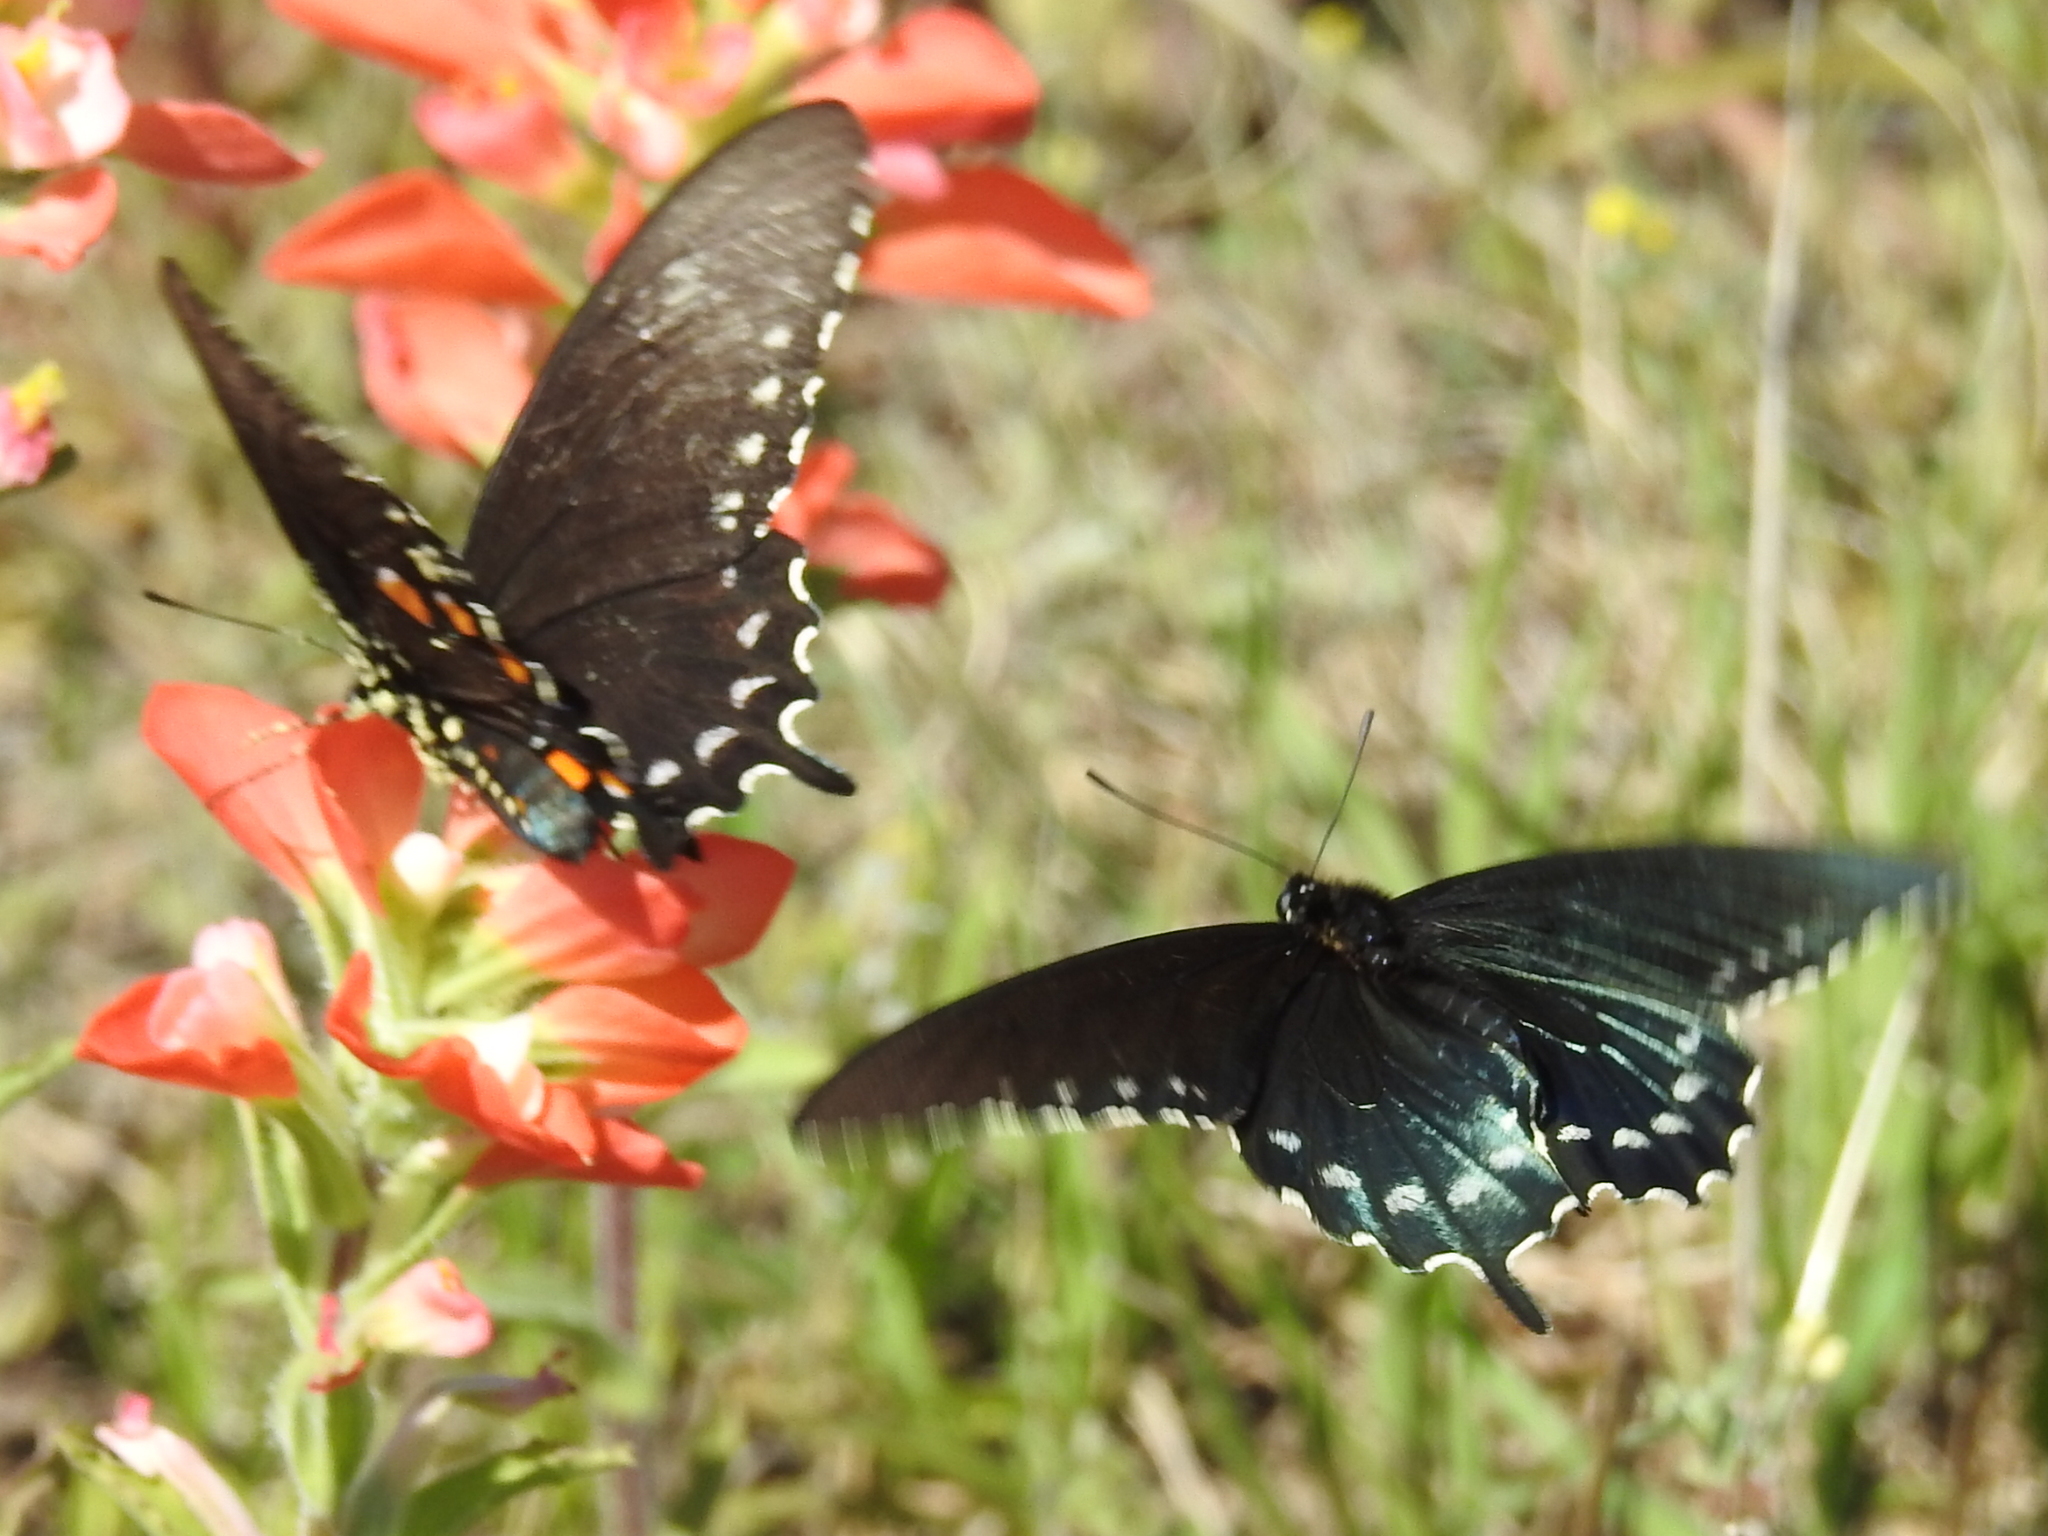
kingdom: Animalia
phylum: Arthropoda
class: Insecta
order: Lepidoptera
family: Papilionidae
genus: Battus
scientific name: Battus philenor
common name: Pipevine swallowtail
